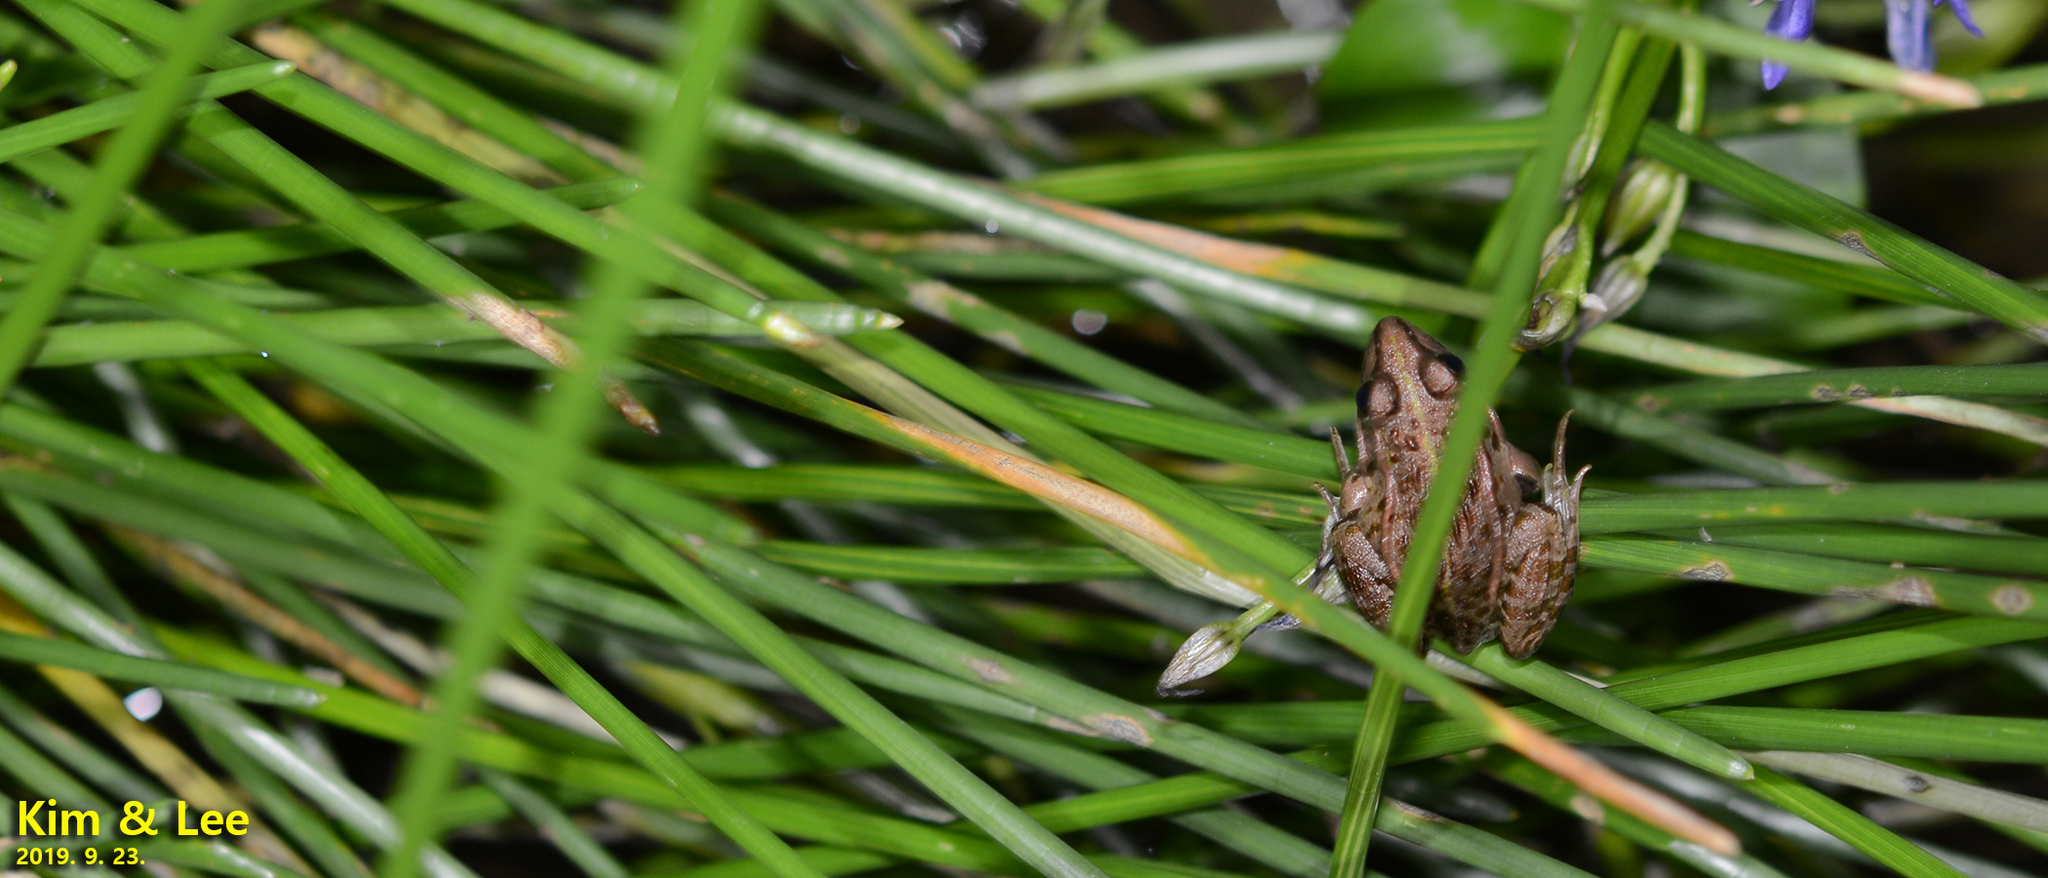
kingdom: Animalia
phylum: Chordata
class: Amphibia
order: Anura
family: Ranidae
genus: Pelophylax
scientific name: Pelophylax nigromaculatus
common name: Black-spotted pond frog
